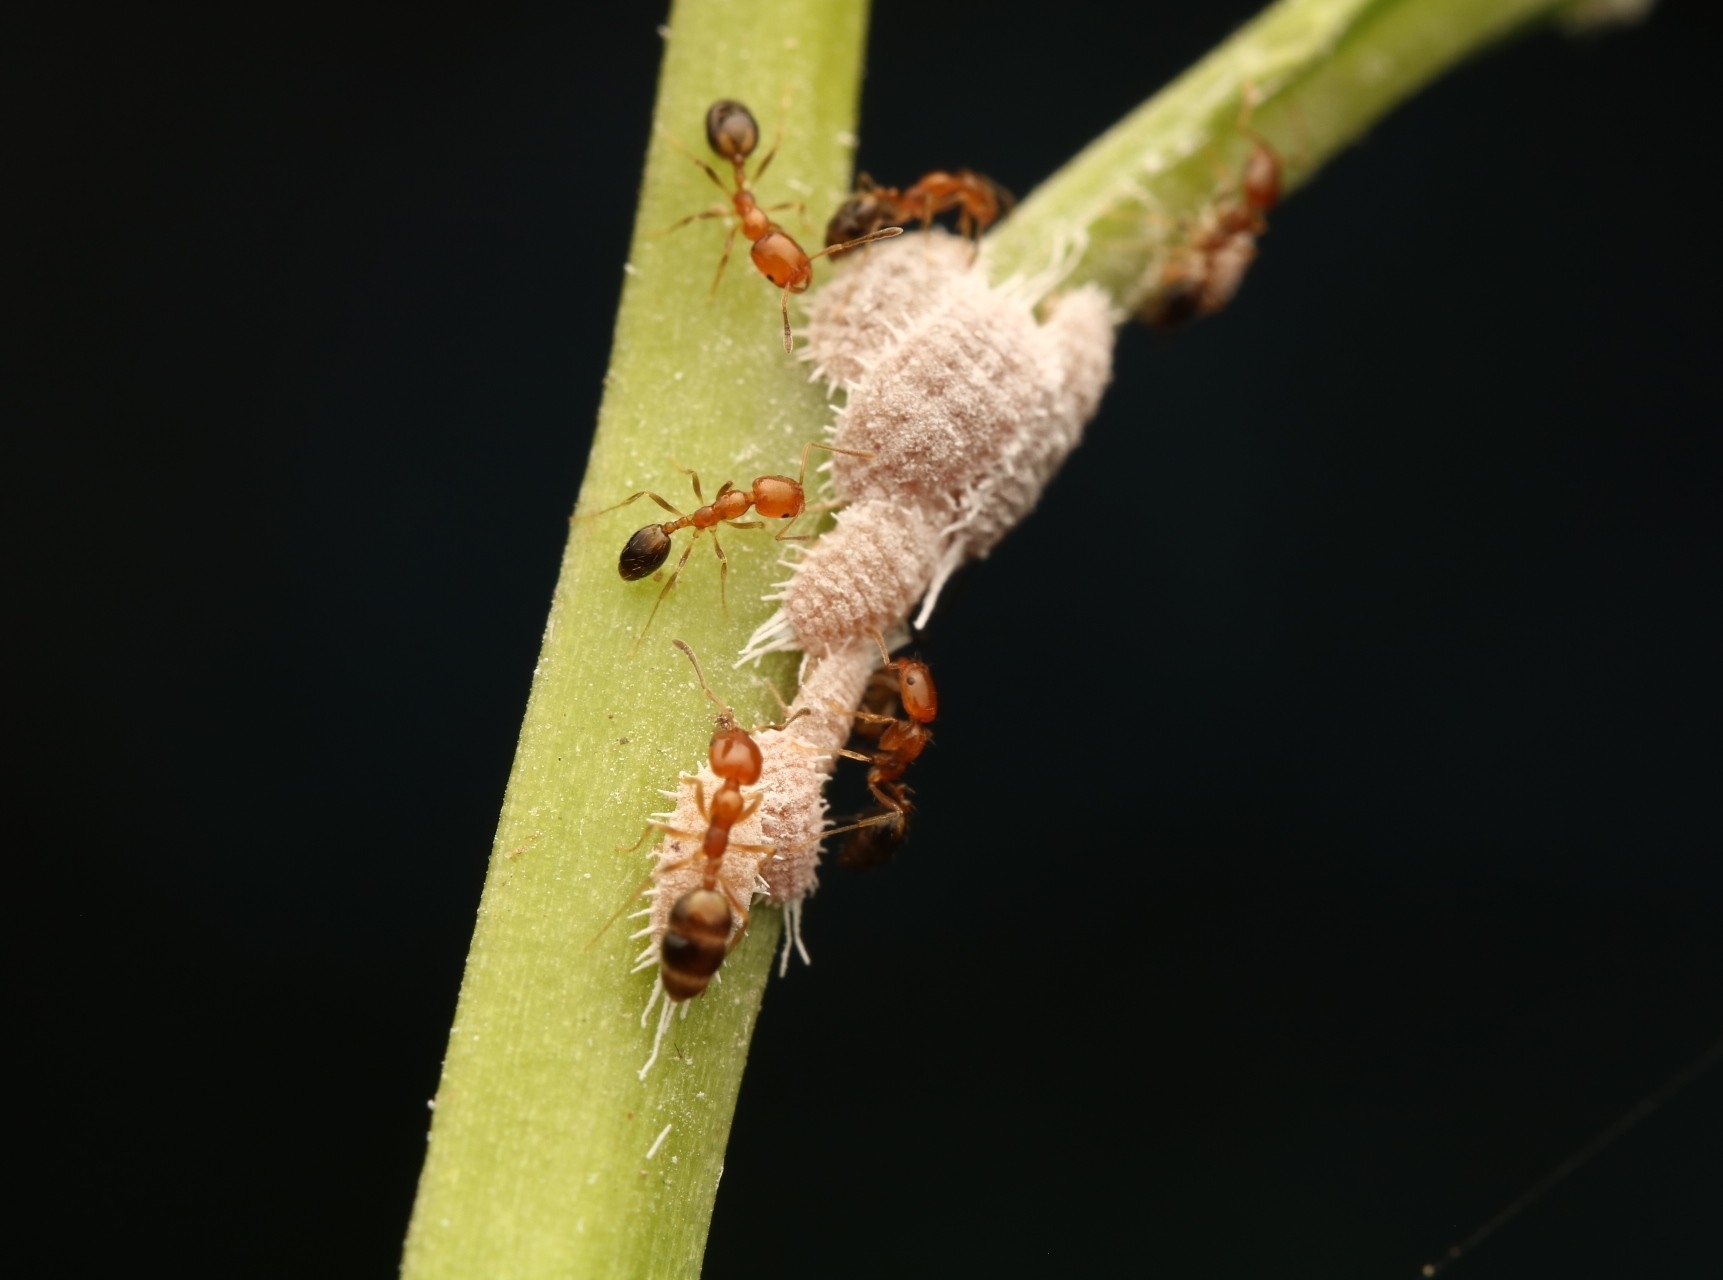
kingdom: Animalia
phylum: Arthropoda
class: Insecta
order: Hymenoptera
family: Formicidae
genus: Monomorium
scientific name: Monomorium destructor
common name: Destructive trailing ant
